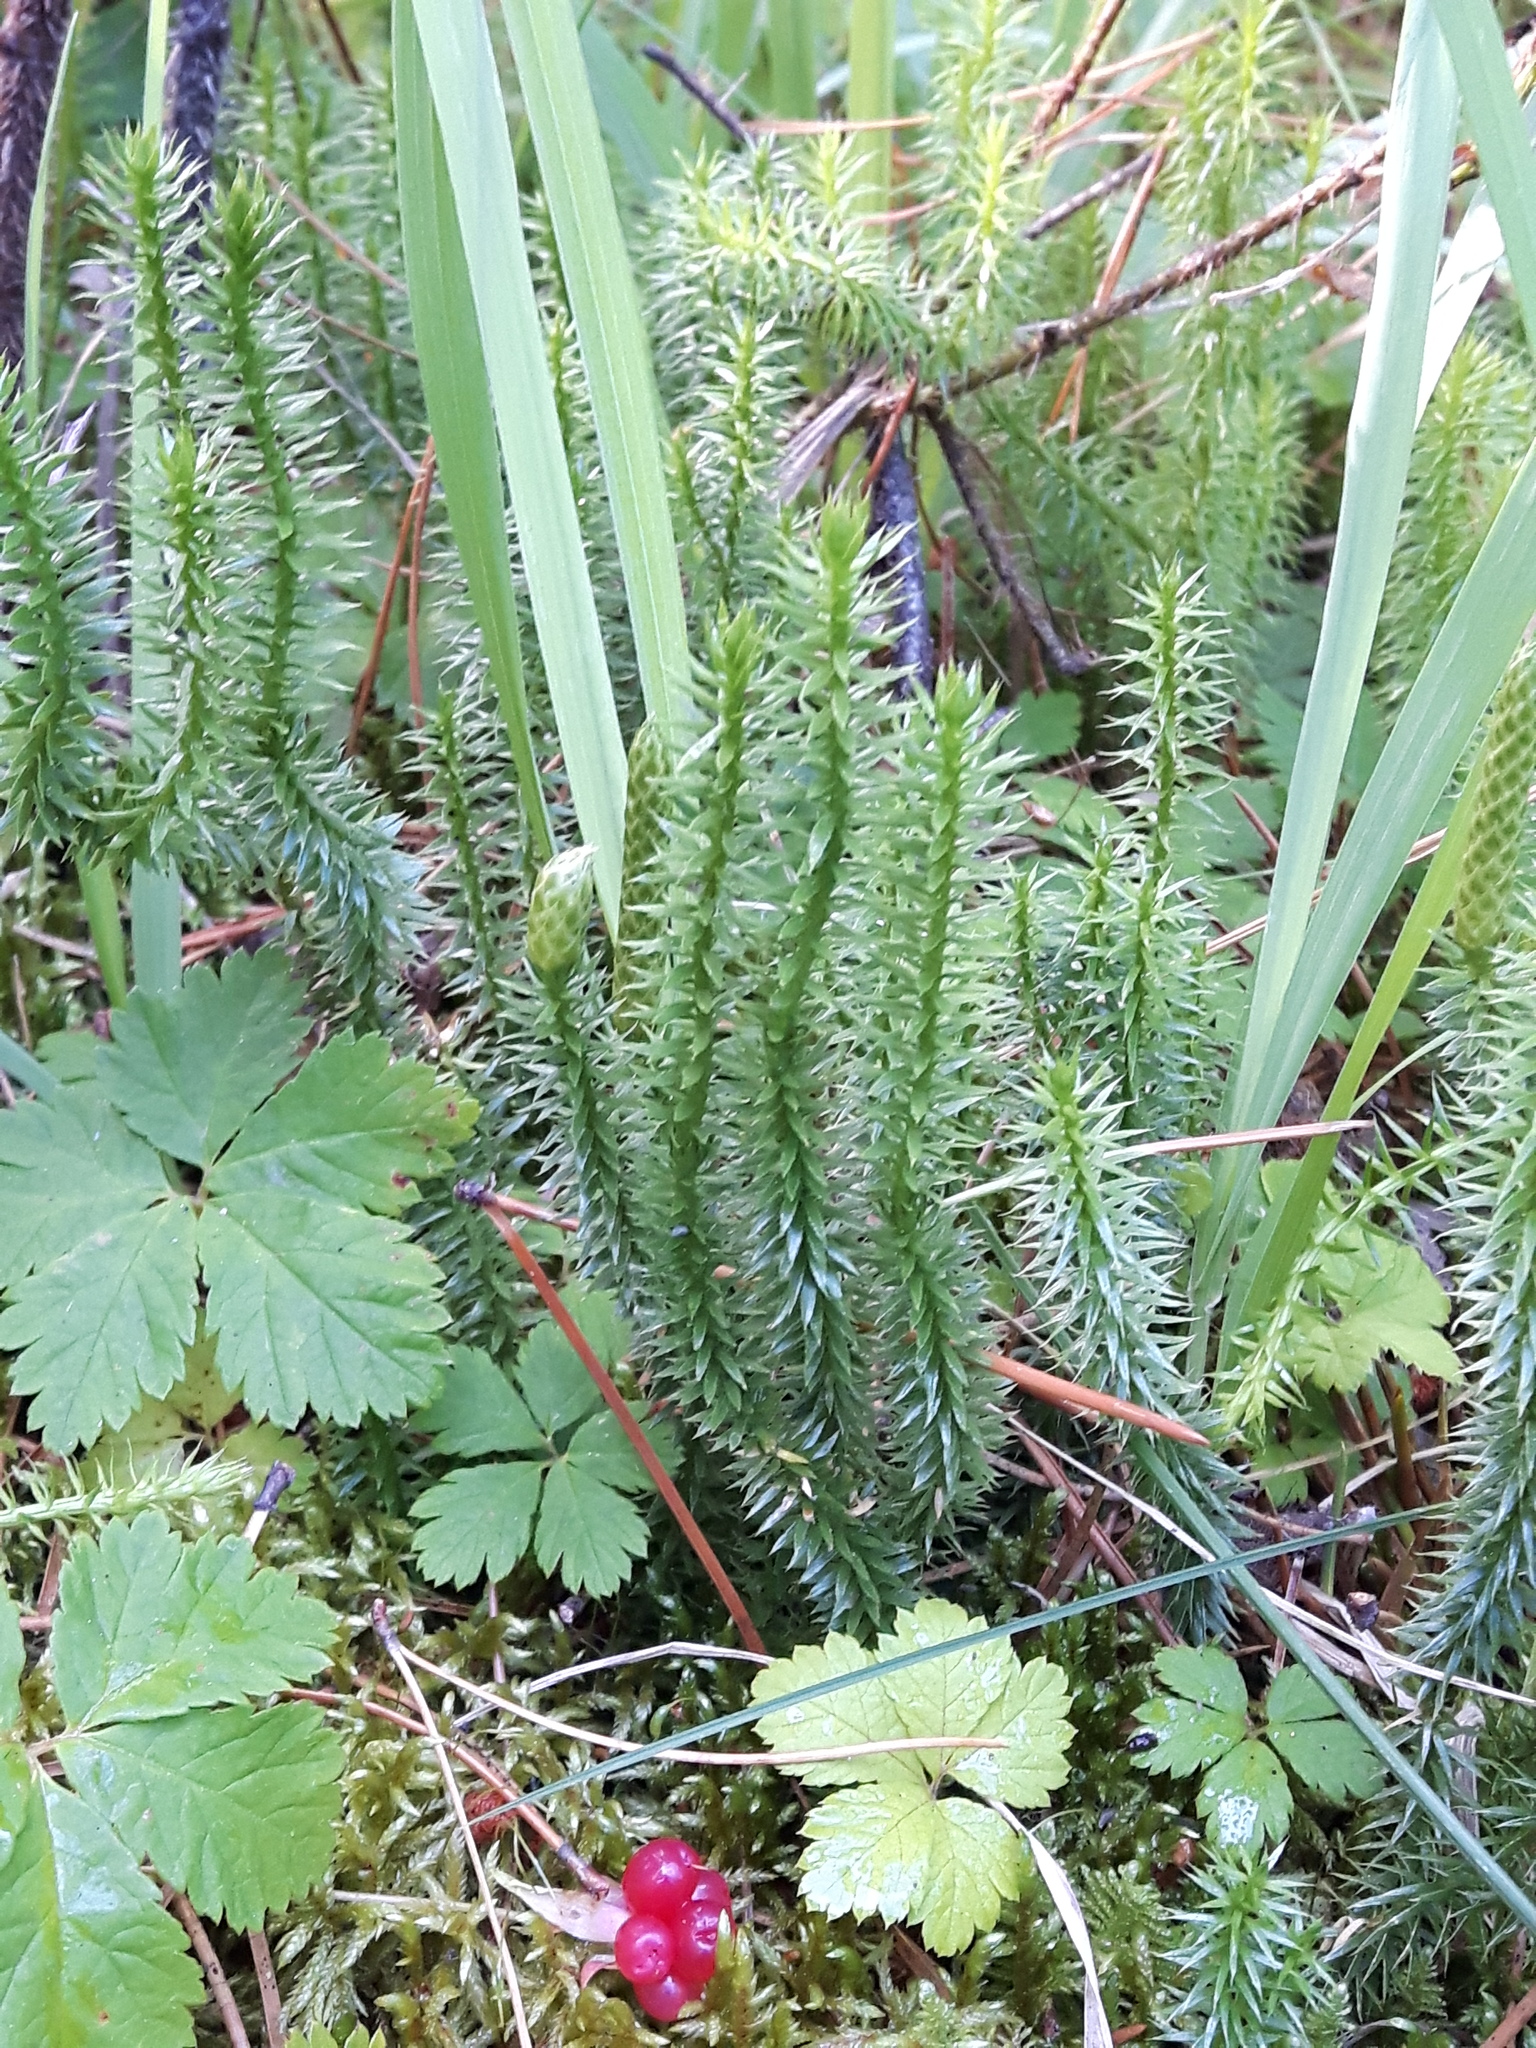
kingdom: Plantae
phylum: Tracheophyta
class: Lycopodiopsida
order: Lycopodiales
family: Lycopodiaceae
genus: Spinulum
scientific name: Spinulum annotinum
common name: Interrupted club-moss
